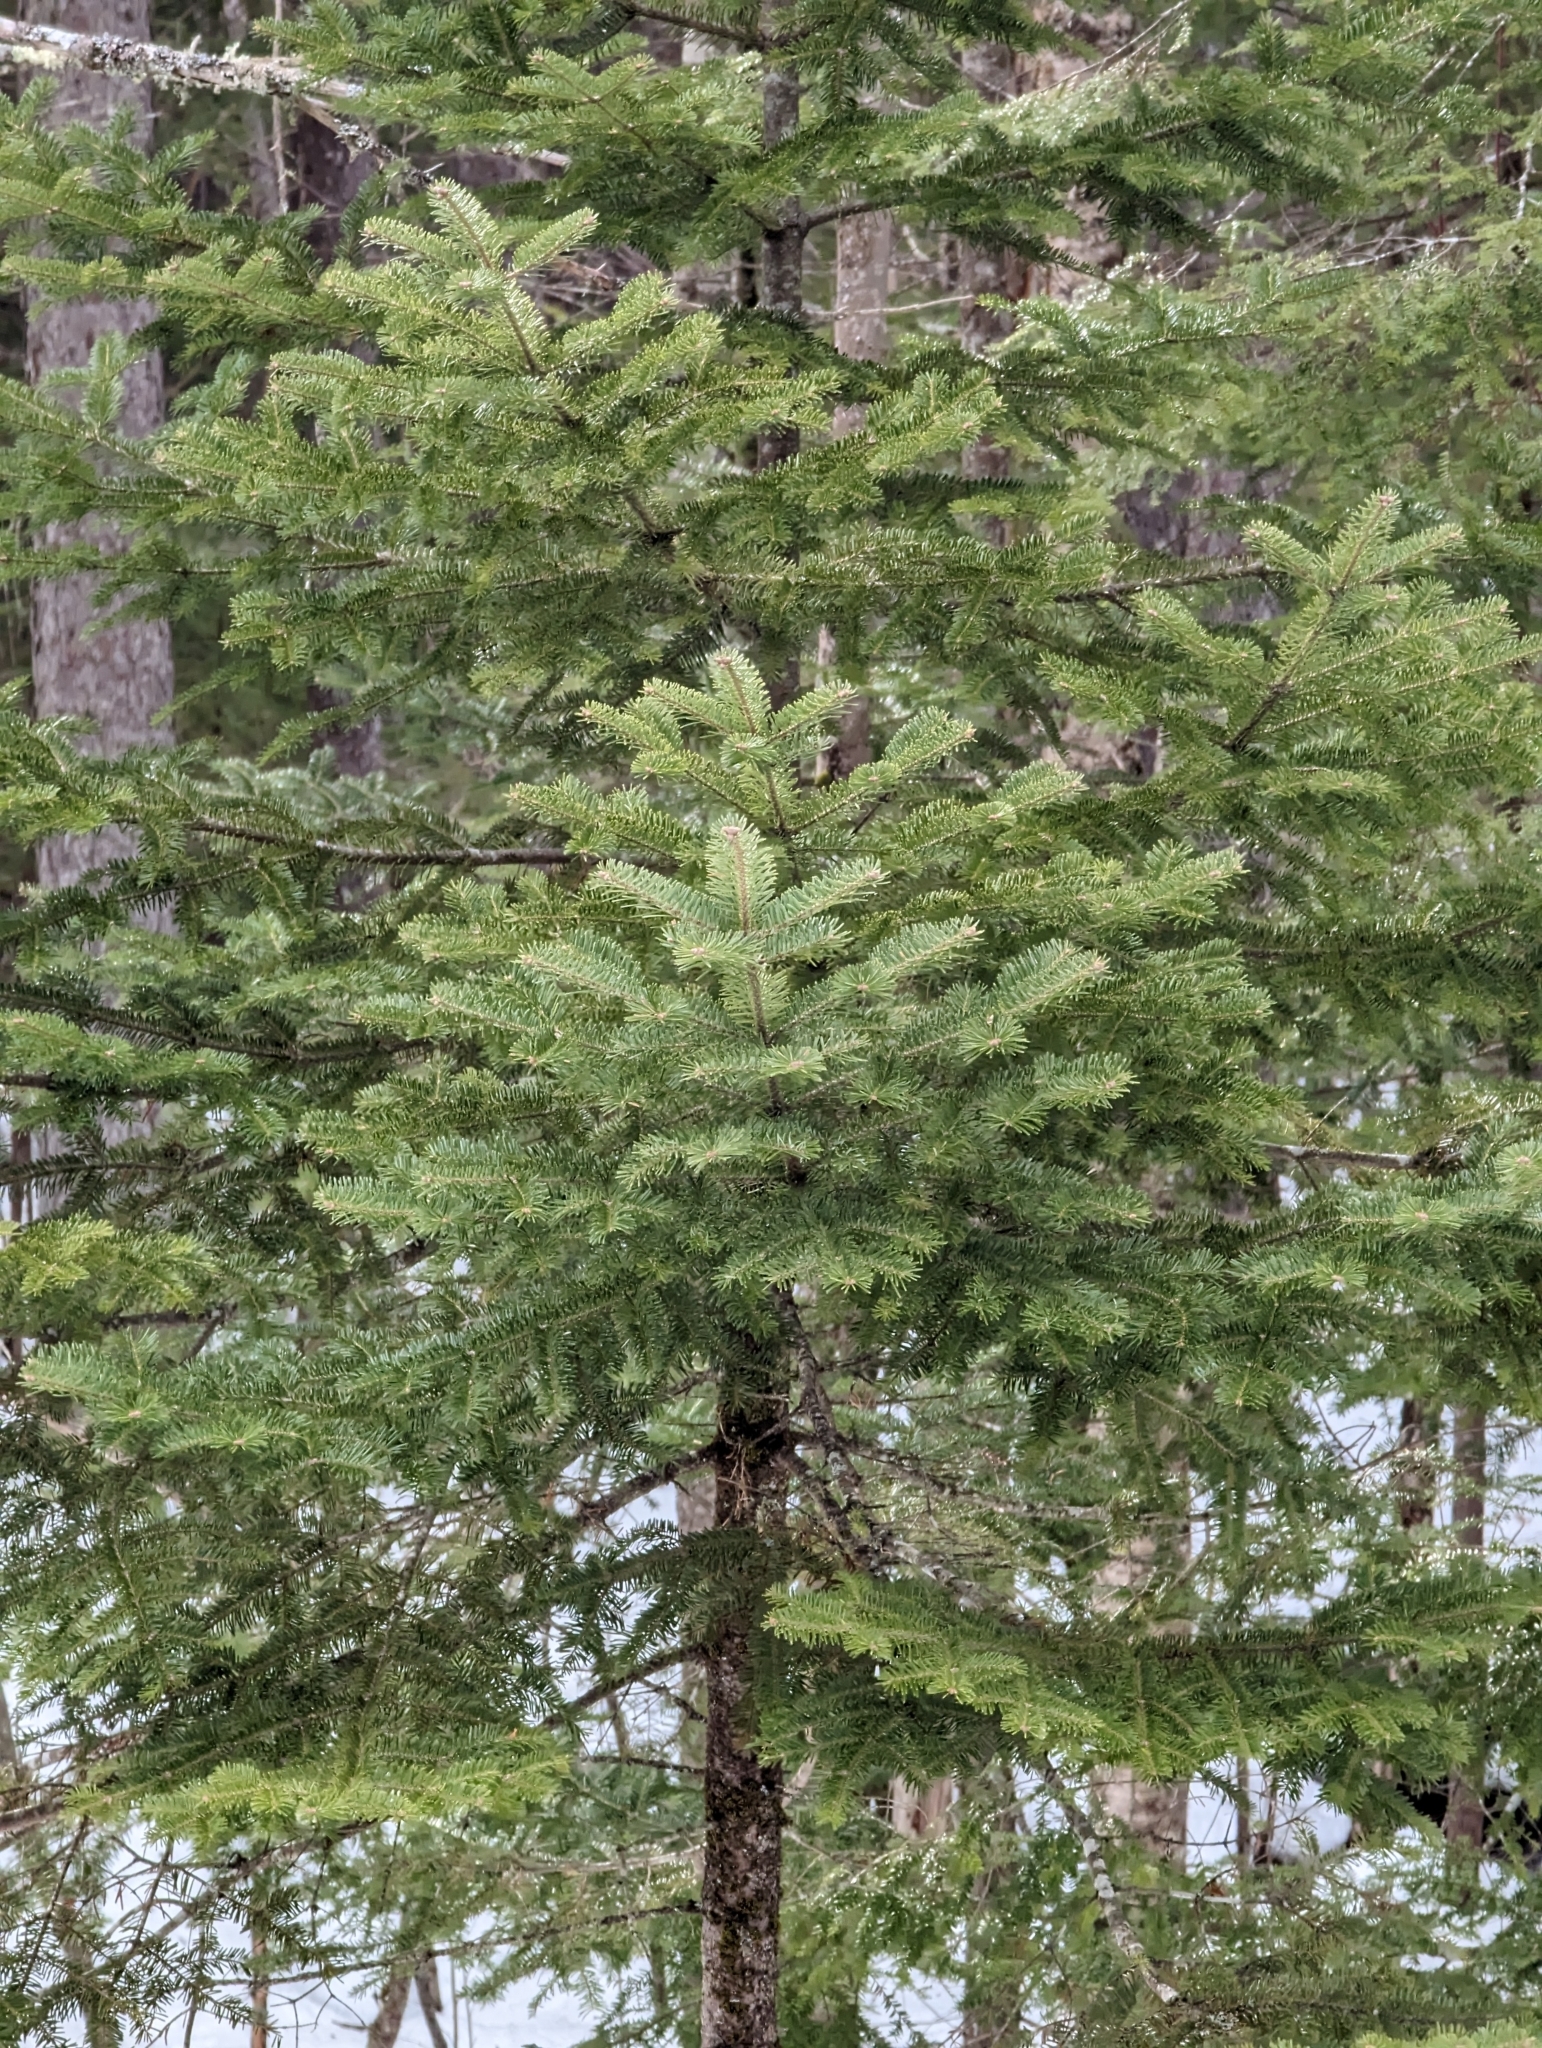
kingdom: Plantae
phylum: Tracheophyta
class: Pinopsida
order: Pinales
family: Pinaceae
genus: Abies
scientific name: Abies balsamea
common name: Balsam fir
